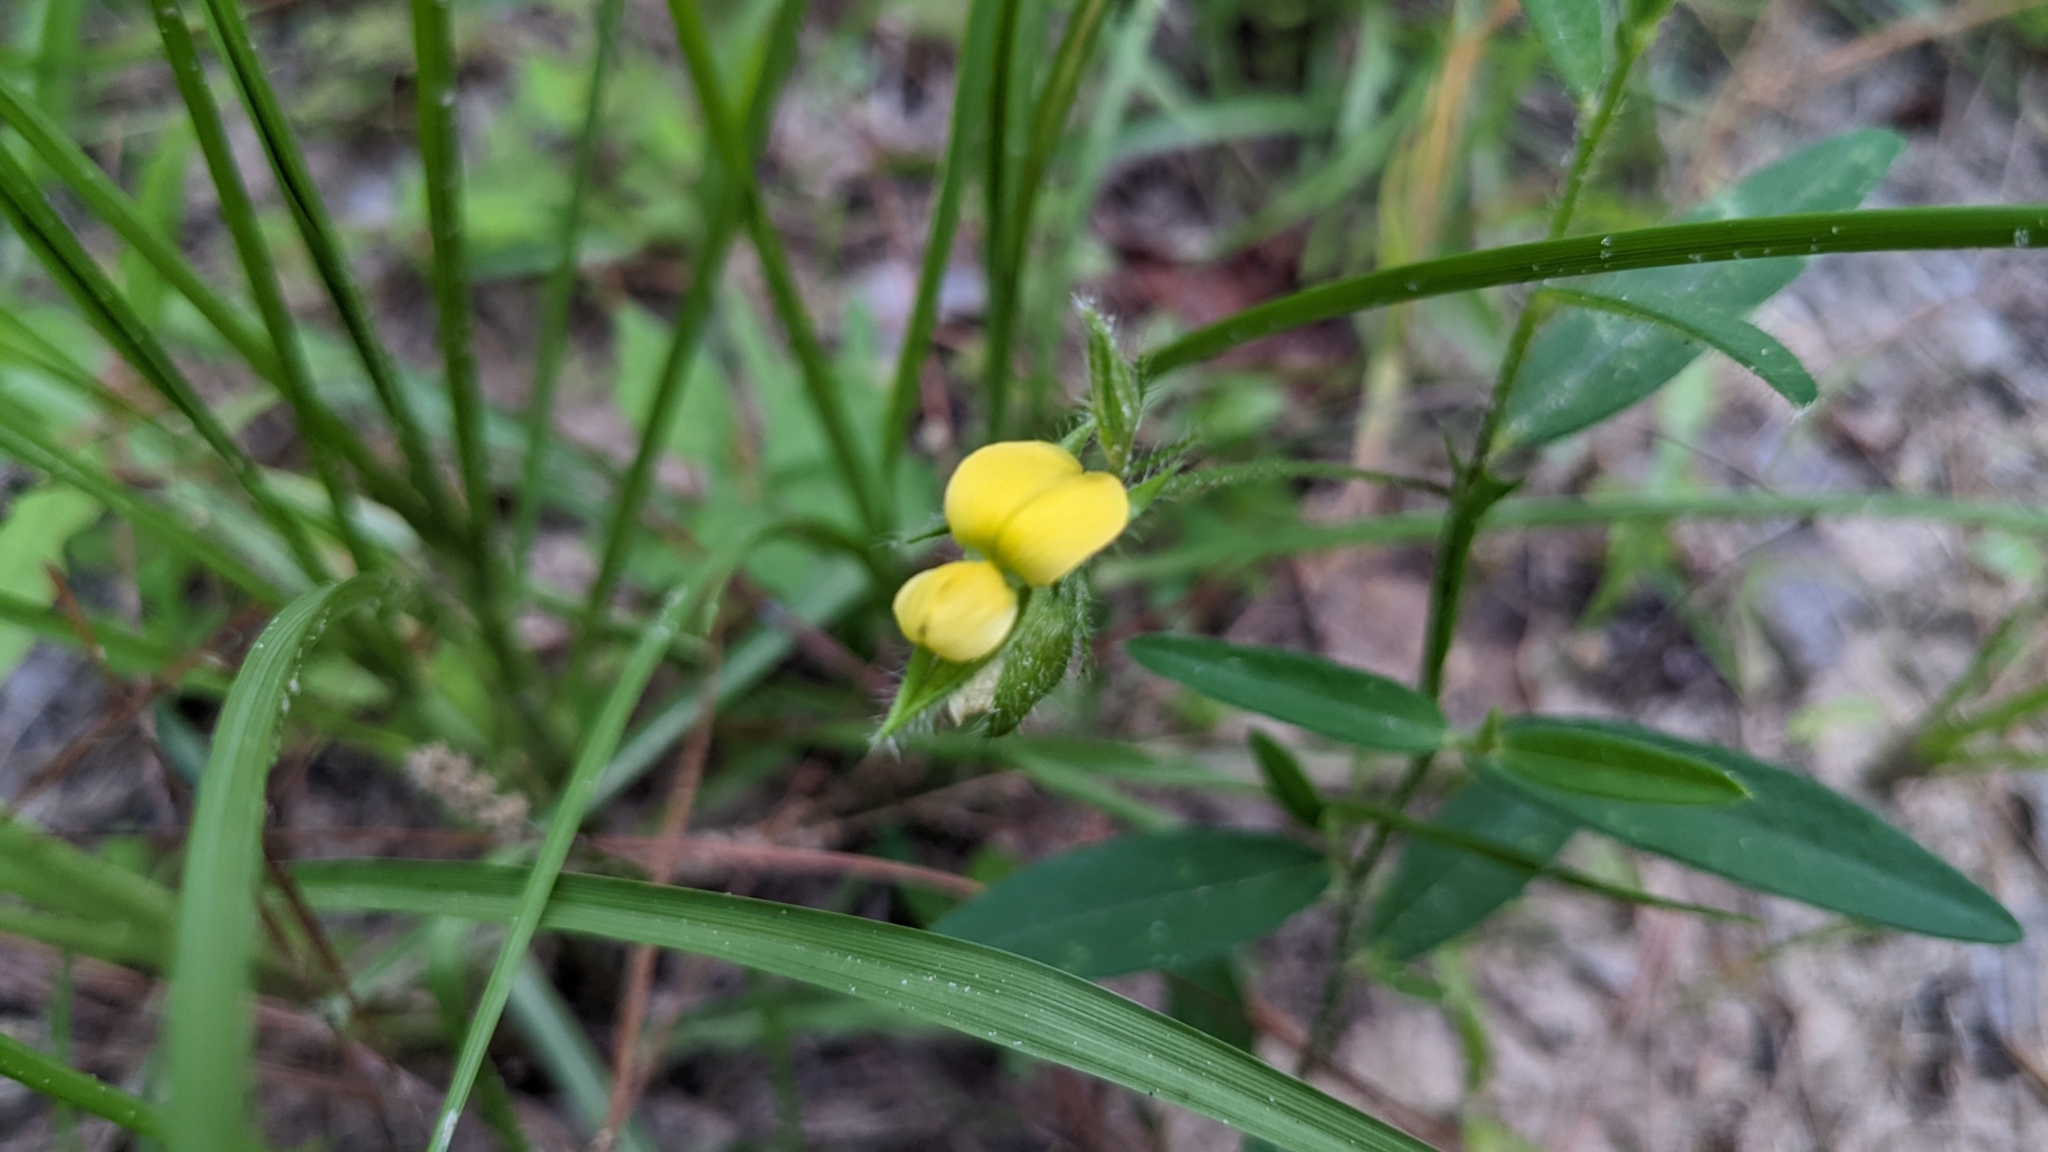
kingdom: Plantae
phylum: Tracheophyta
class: Magnoliopsida
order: Fabales
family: Fabaceae
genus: Crotalaria
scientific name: Crotalaria sagittalis
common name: Arrowhead rattlebox
